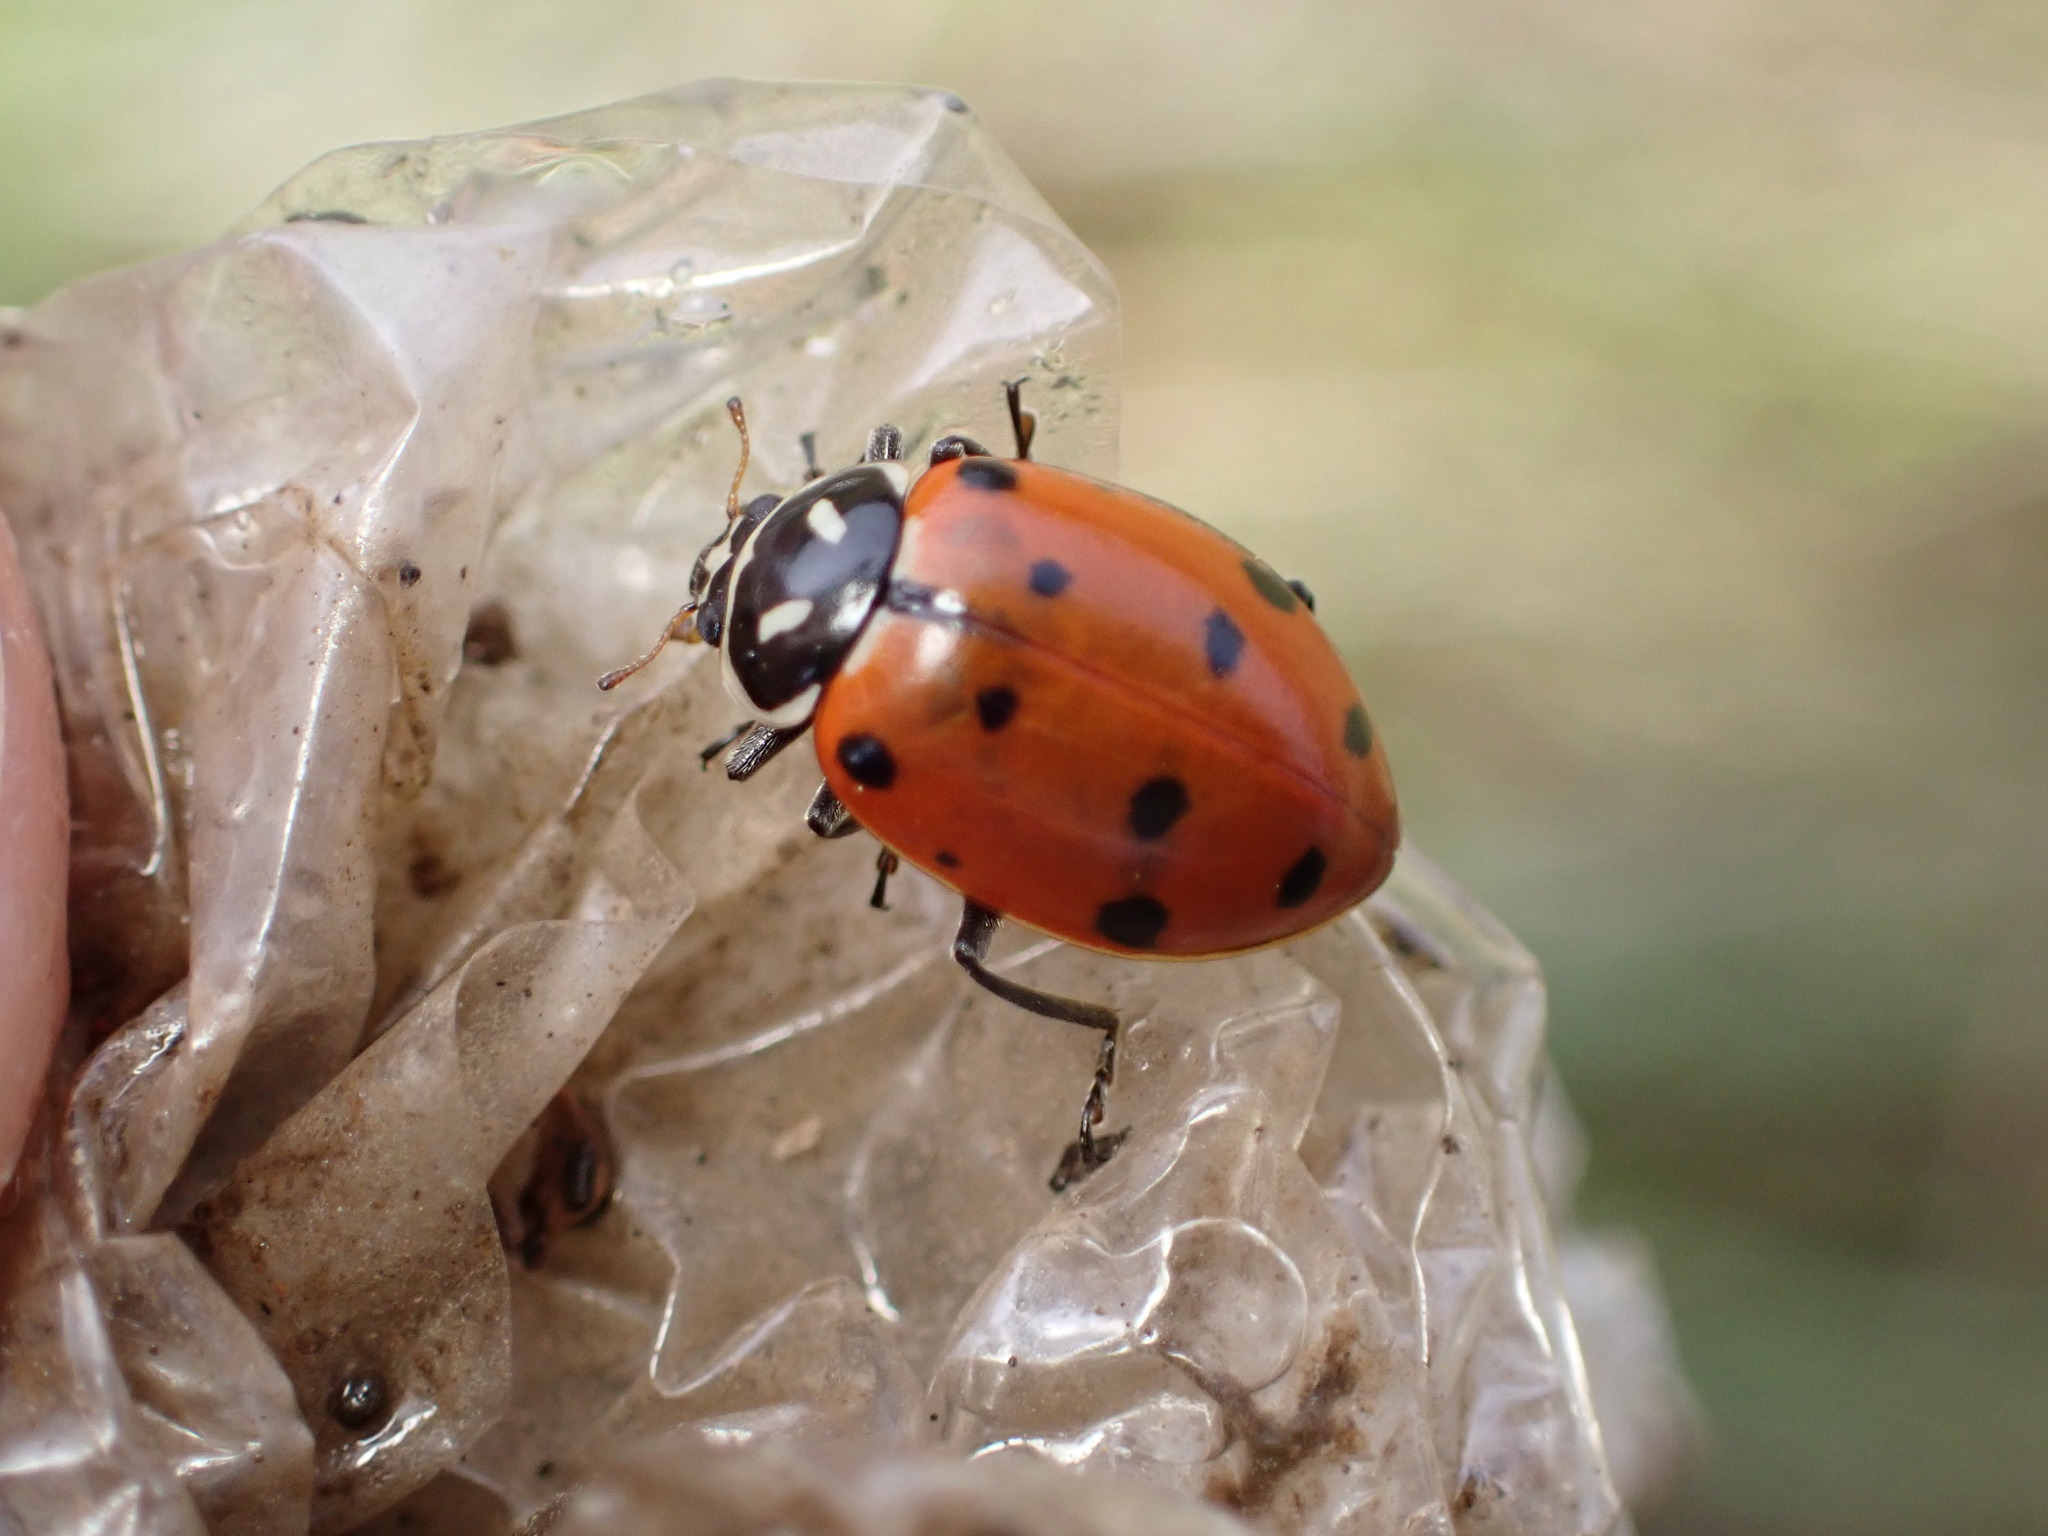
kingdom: Animalia
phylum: Arthropoda
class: Insecta
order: Coleoptera
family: Coccinellidae
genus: Hippodamia
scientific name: Hippodamia convergens
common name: Convergent lady beetle
